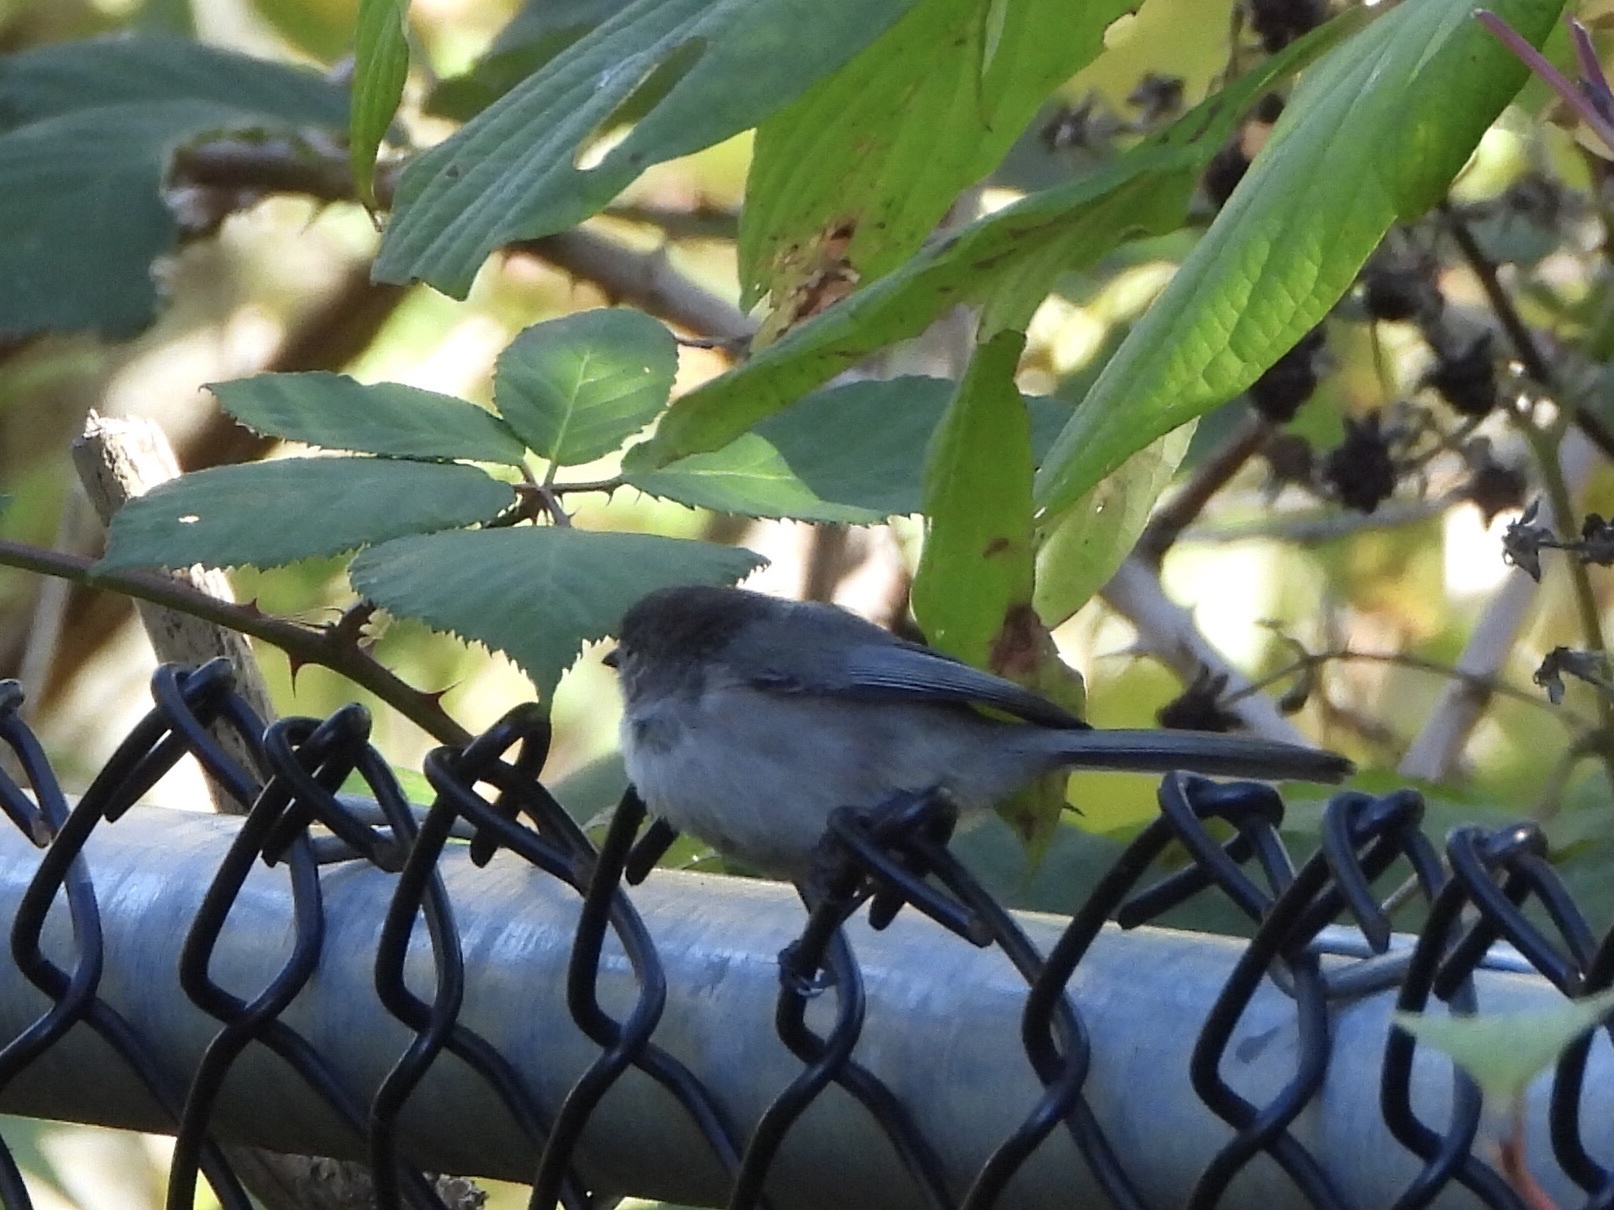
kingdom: Animalia
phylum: Chordata
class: Aves
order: Passeriformes
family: Aegithalidae
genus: Psaltriparus
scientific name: Psaltriparus minimus
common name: American bushtit
